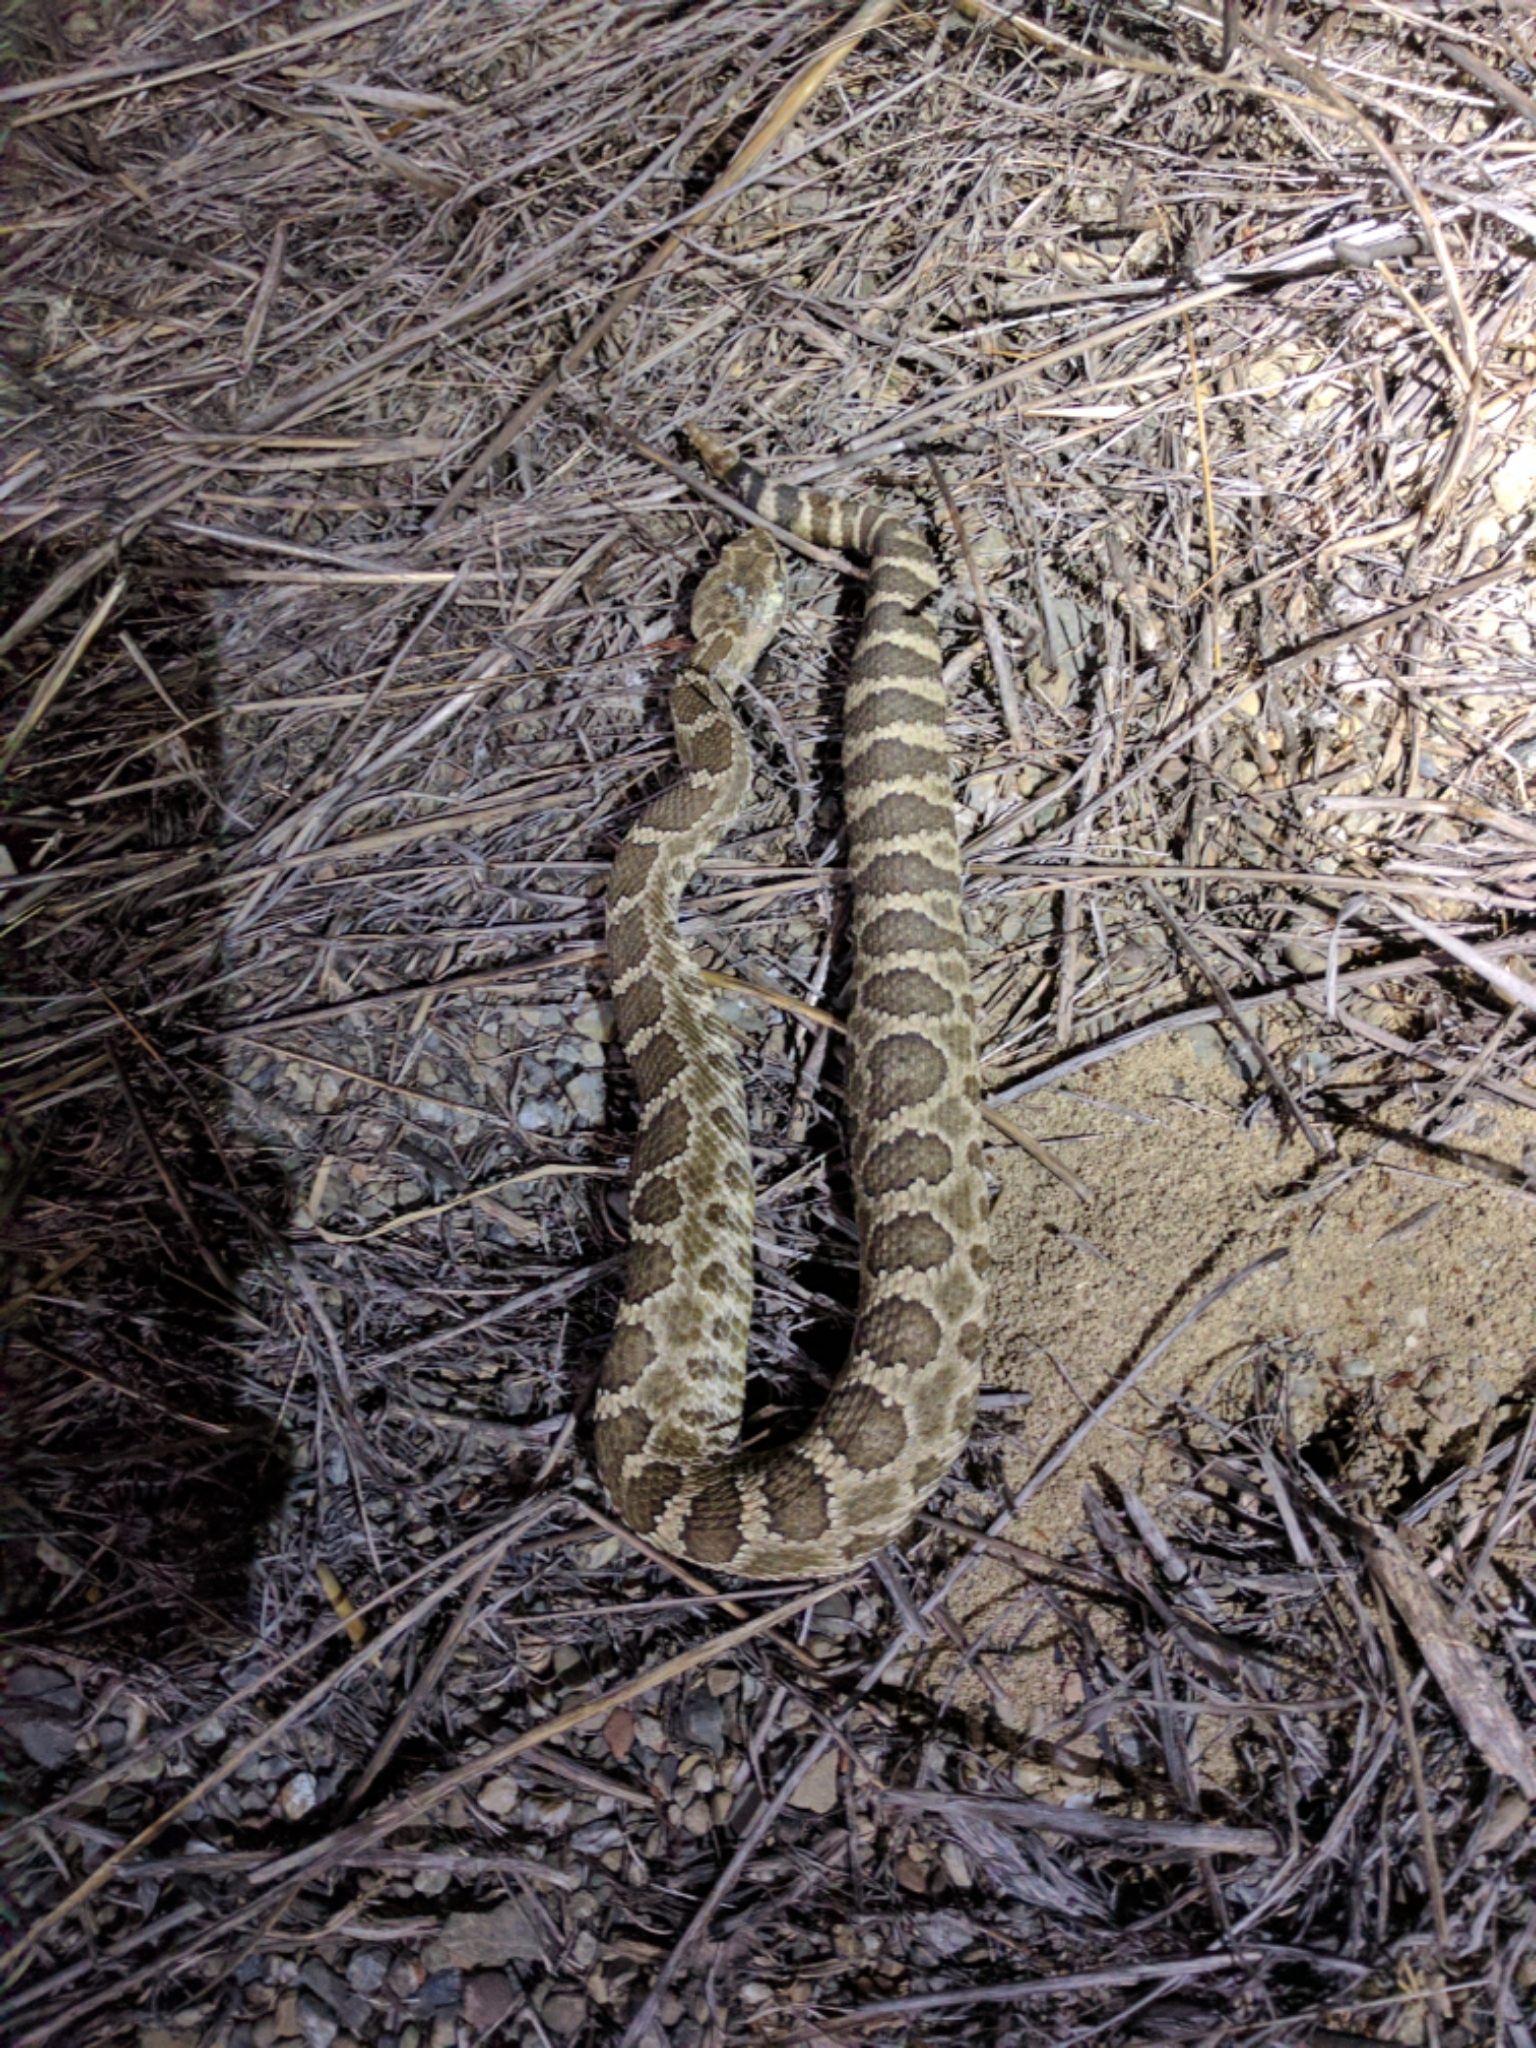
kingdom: Animalia
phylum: Chordata
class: Squamata
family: Viperidae
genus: Crotalus
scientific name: Crotalus oreganus
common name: Abyssus
